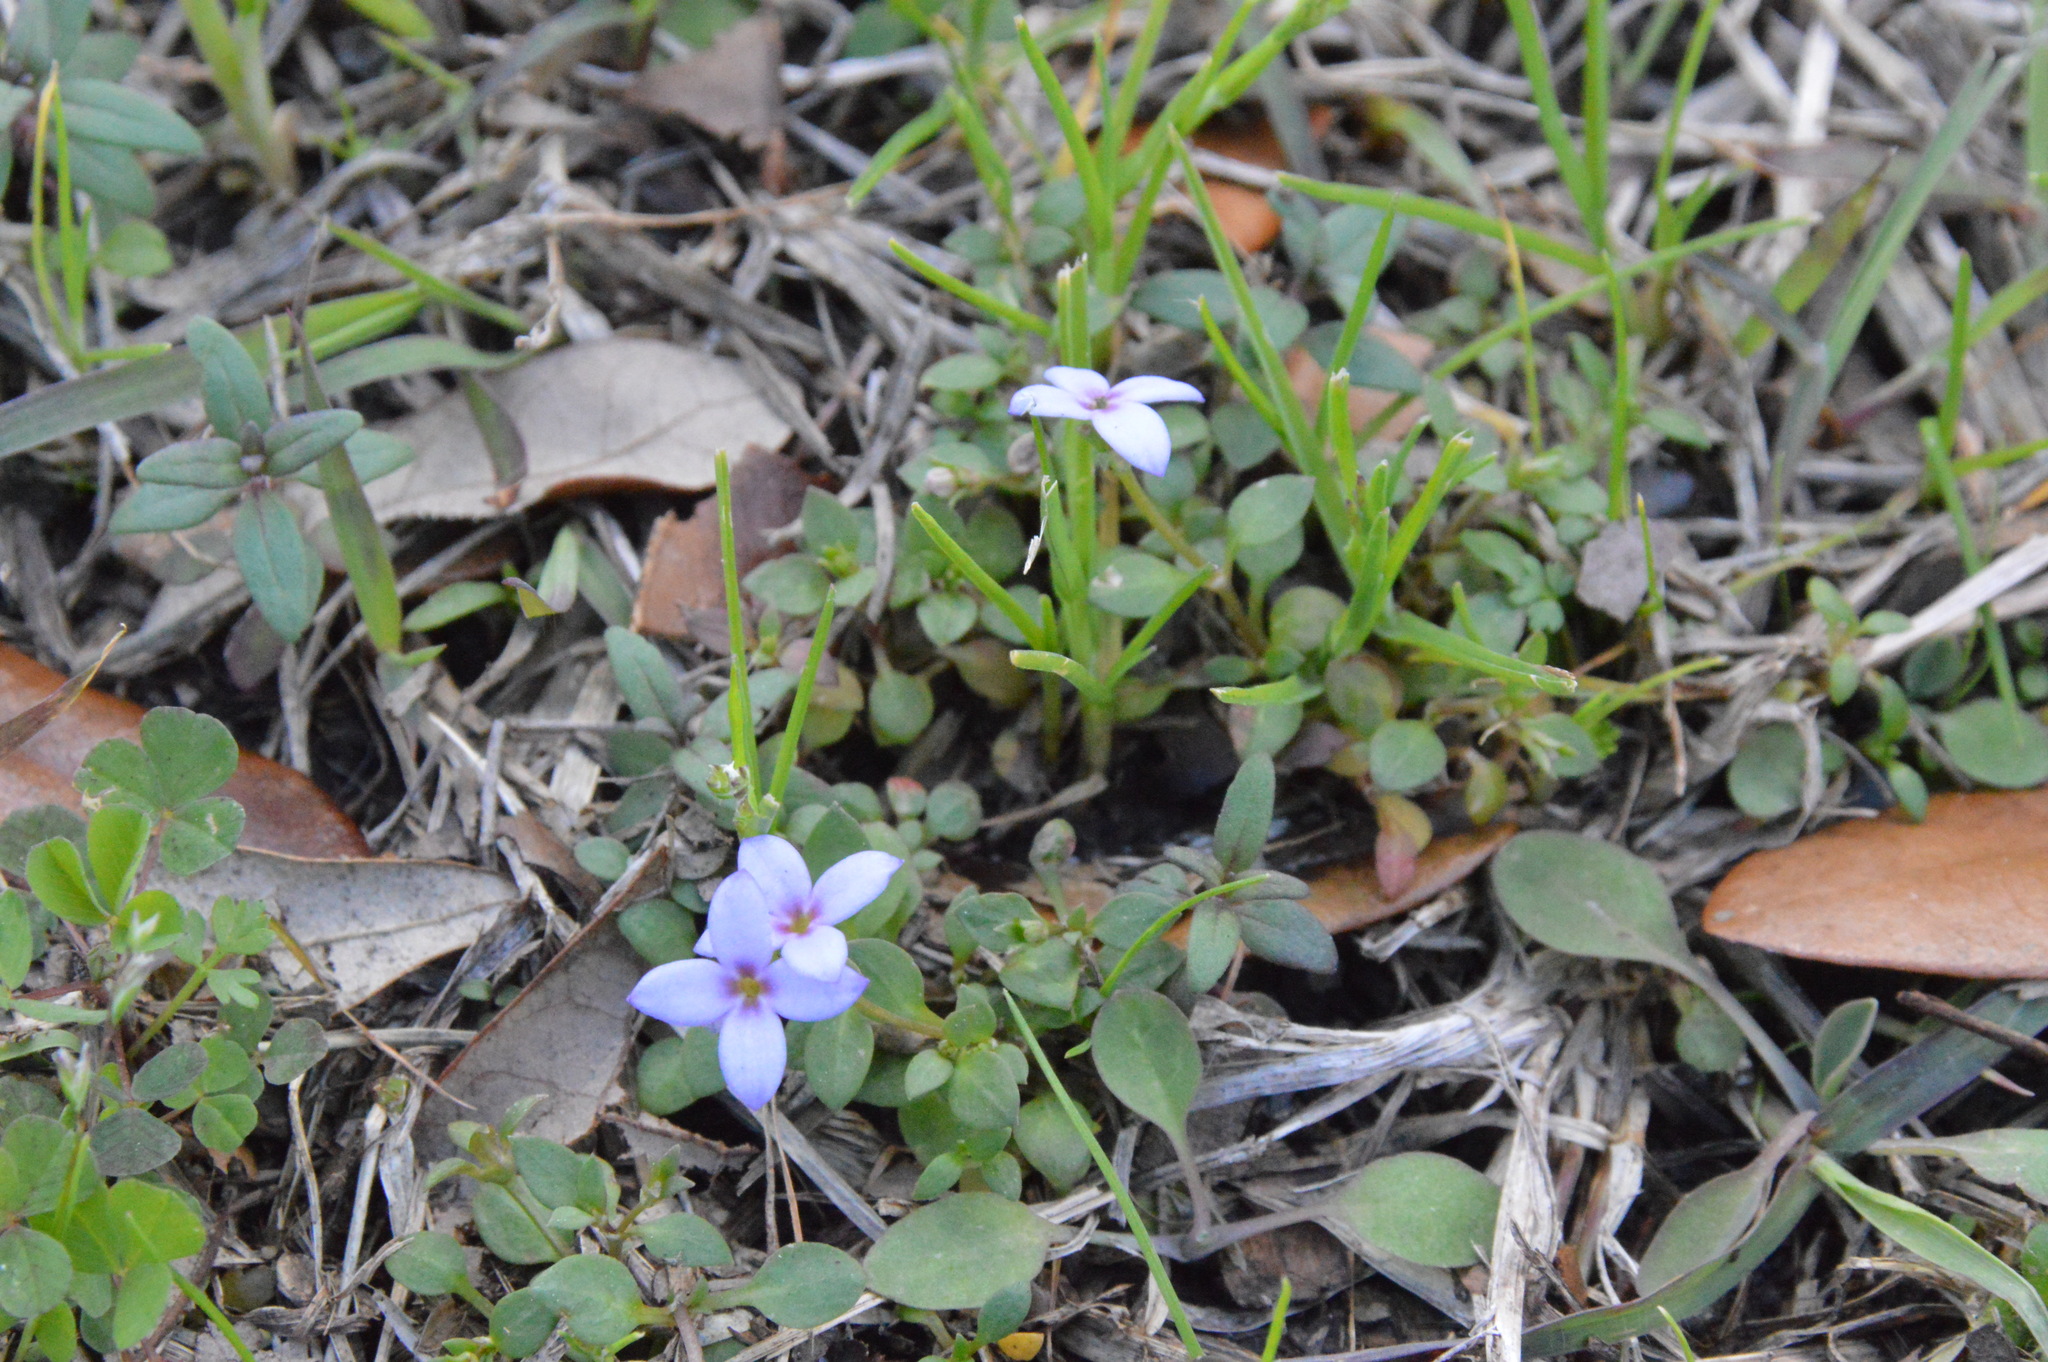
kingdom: Plantae
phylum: Tracheophyta
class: Magnoliopsida
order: Gentianales
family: Rubiaceae
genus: Houstonia
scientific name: Houstonia pusilla
